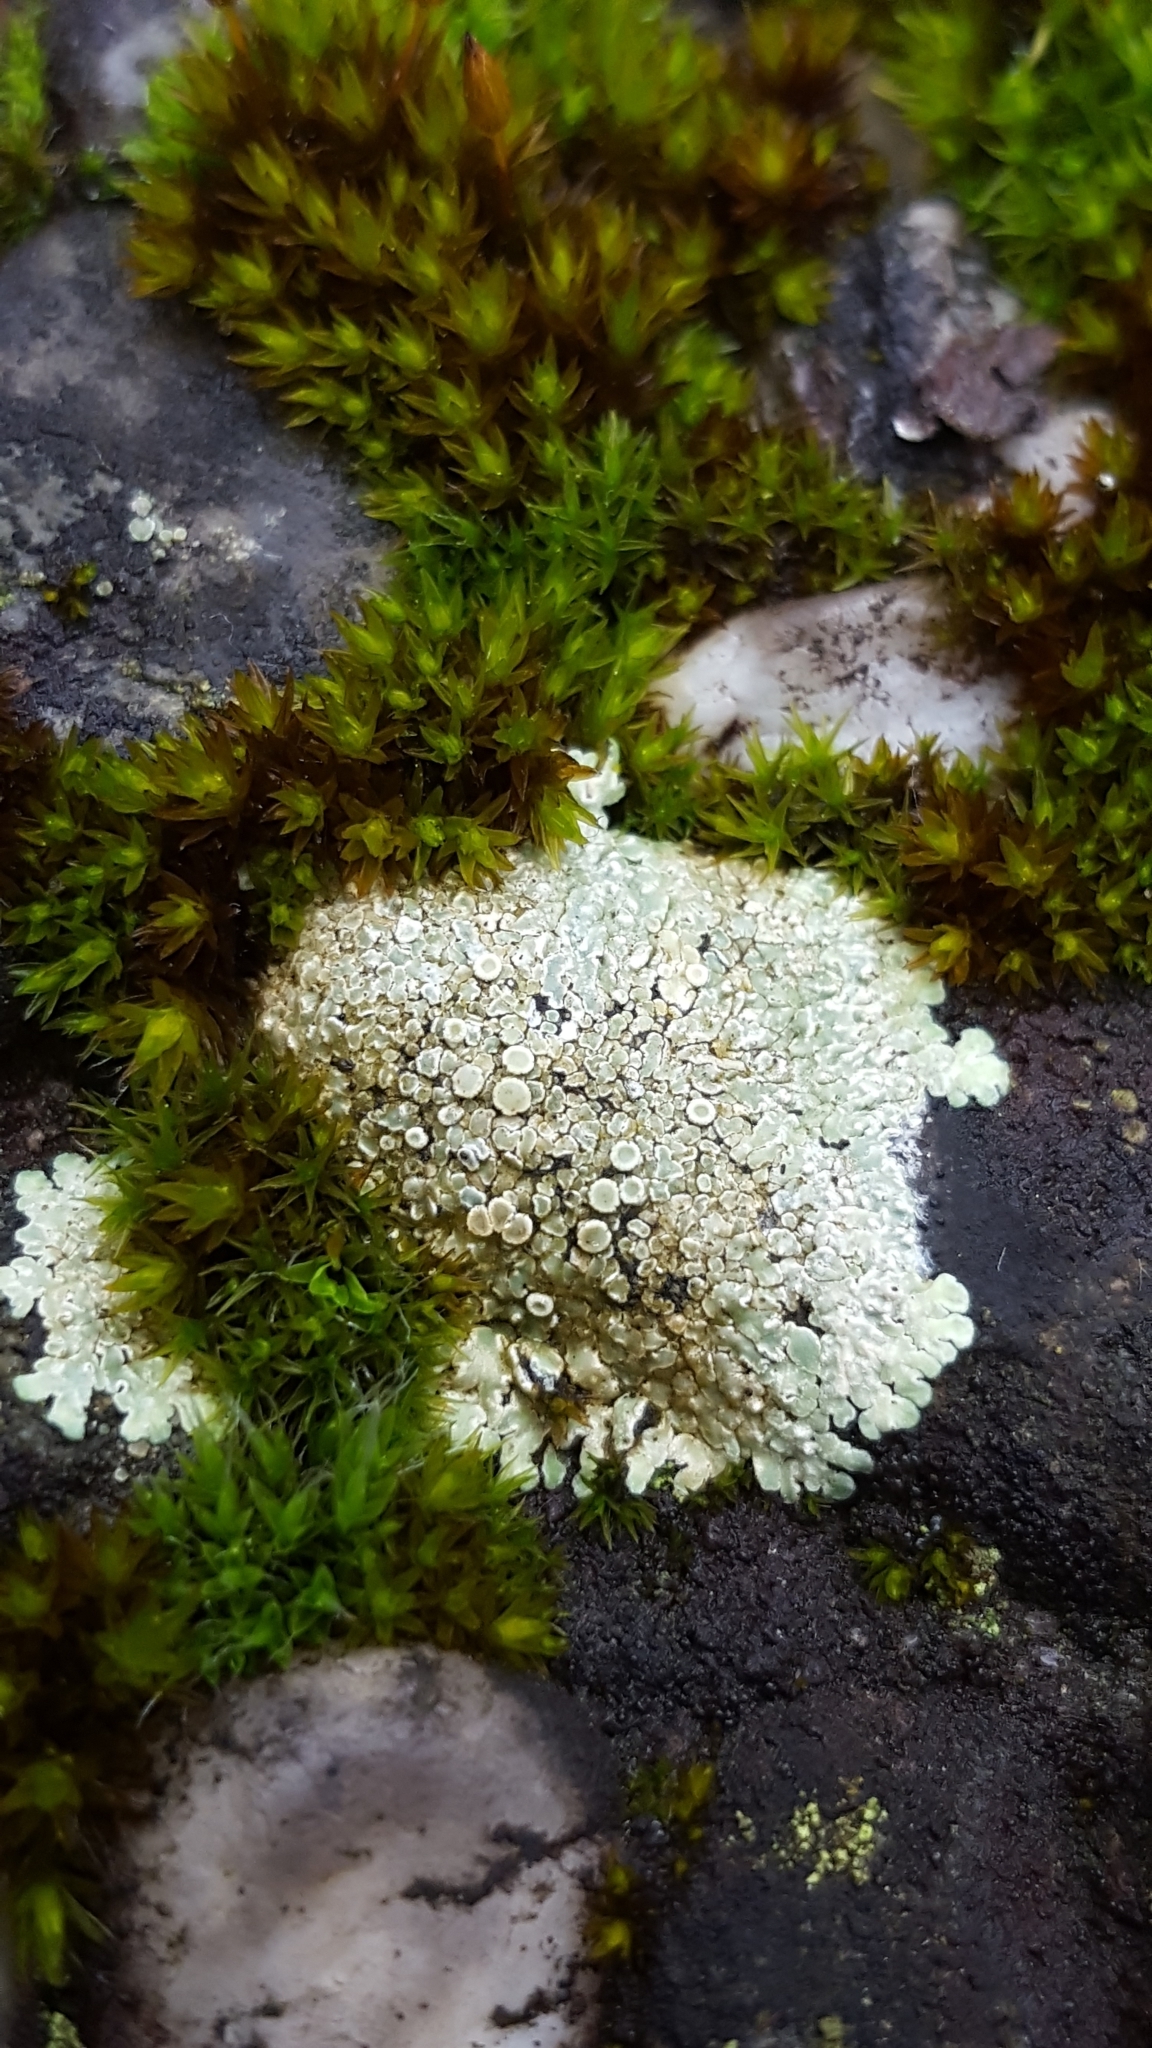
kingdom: Fungi
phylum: Ascomycota
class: Lecanoromycetes
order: Lecanorales
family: Lecanoraceae
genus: Protoparmeliopsis
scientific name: Protoparmeliopsis muralis
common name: Stonewall rim lichen
